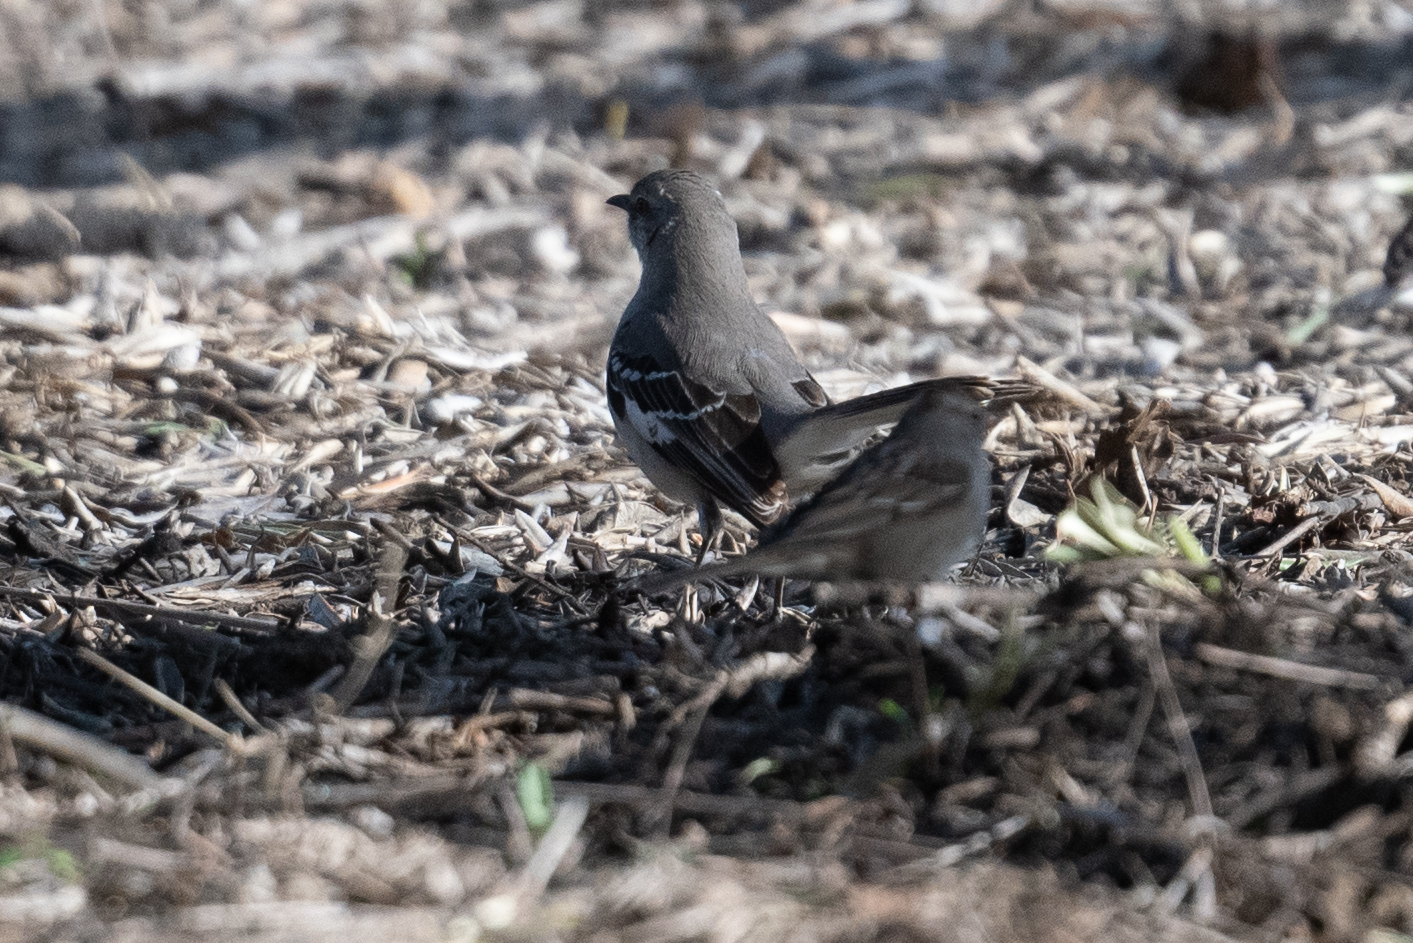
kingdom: Animalia
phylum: Chordata
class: Aves
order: Passeriformes
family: Mimidae
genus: Mimus
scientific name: Mimus polyglottos
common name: Northern mockingbird
